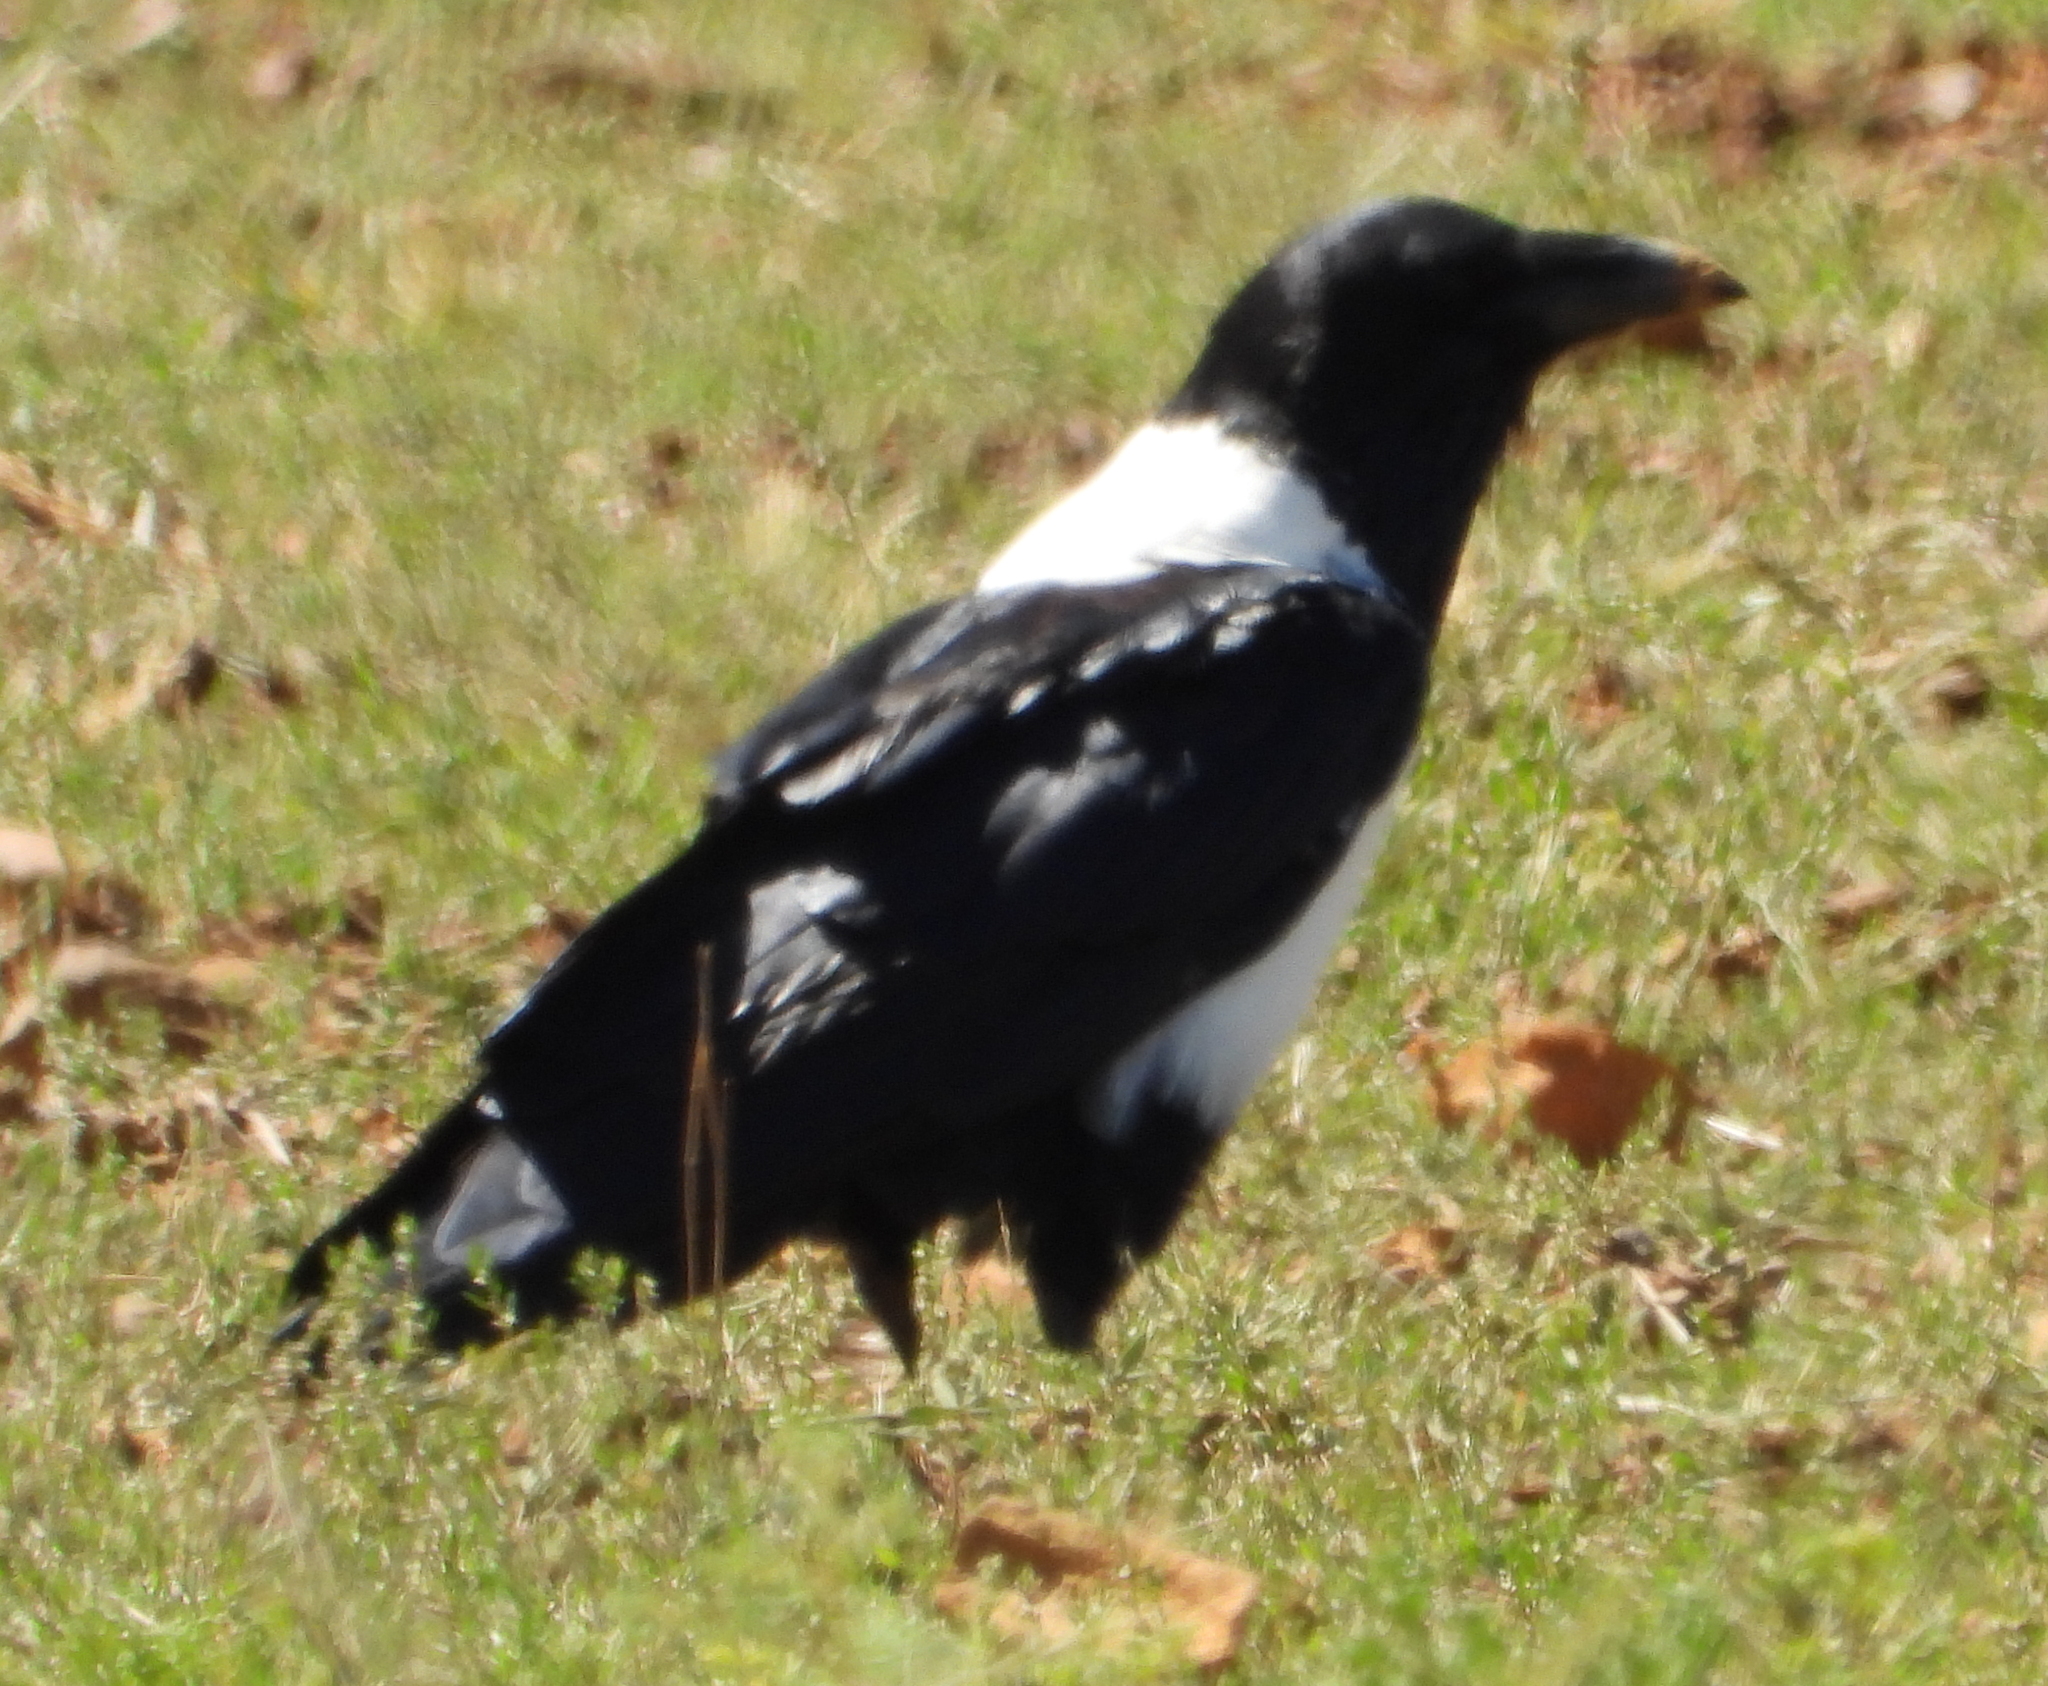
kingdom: Animalia
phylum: Chordata
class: Aves
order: Passeriformes
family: Corvidae
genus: Corvus
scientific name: Corvus albus
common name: Pied crow
